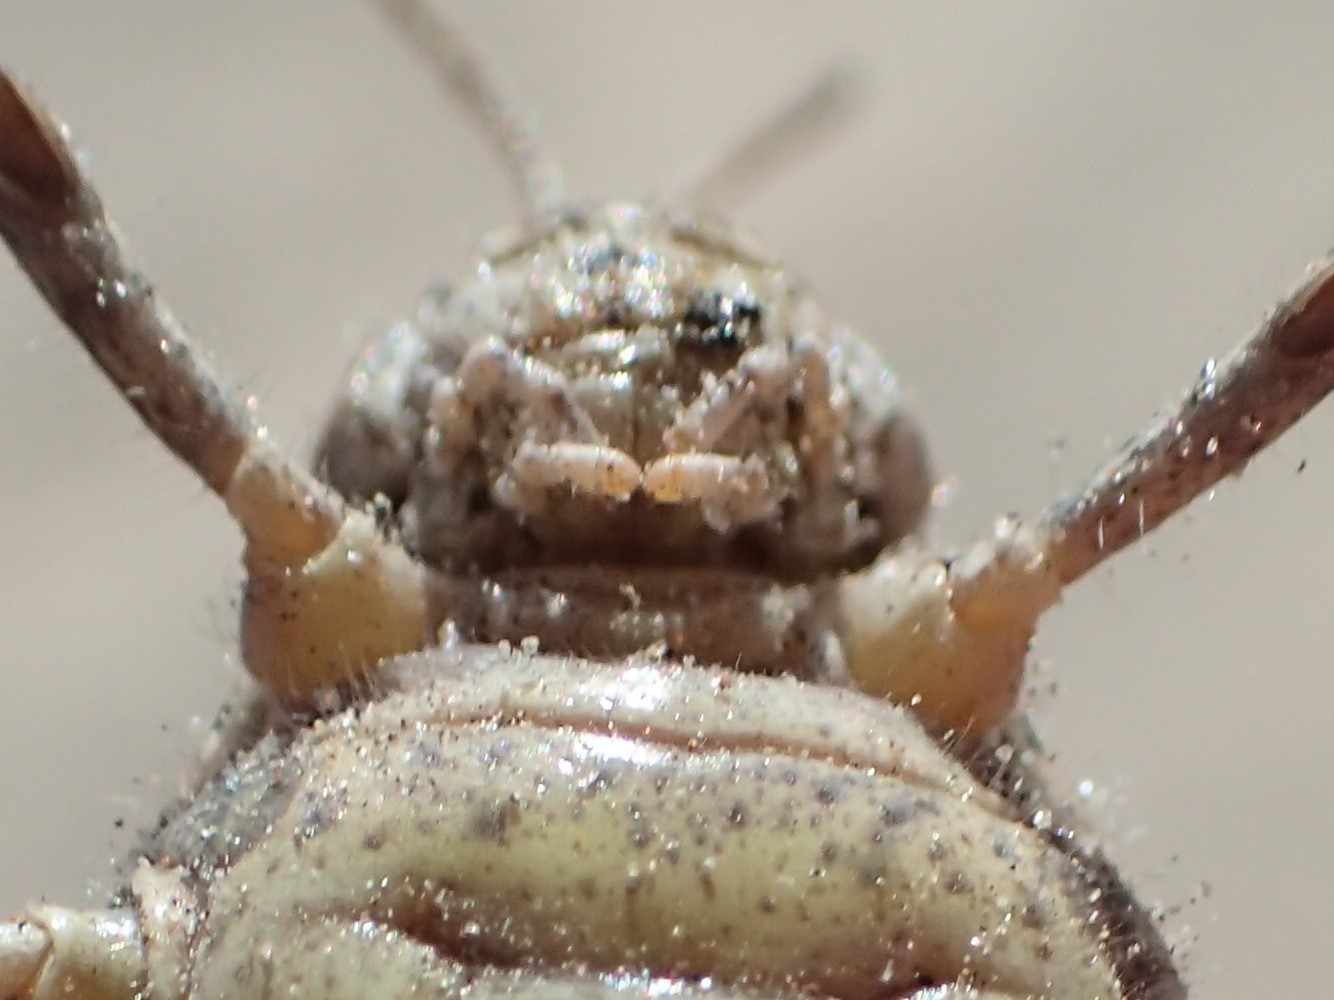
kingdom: Animalia
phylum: Arthropoda
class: Insecta
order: Orthoptera
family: Acrididae
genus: Urnisa
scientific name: Urnisa rugosa
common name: Red-legged urnisa
